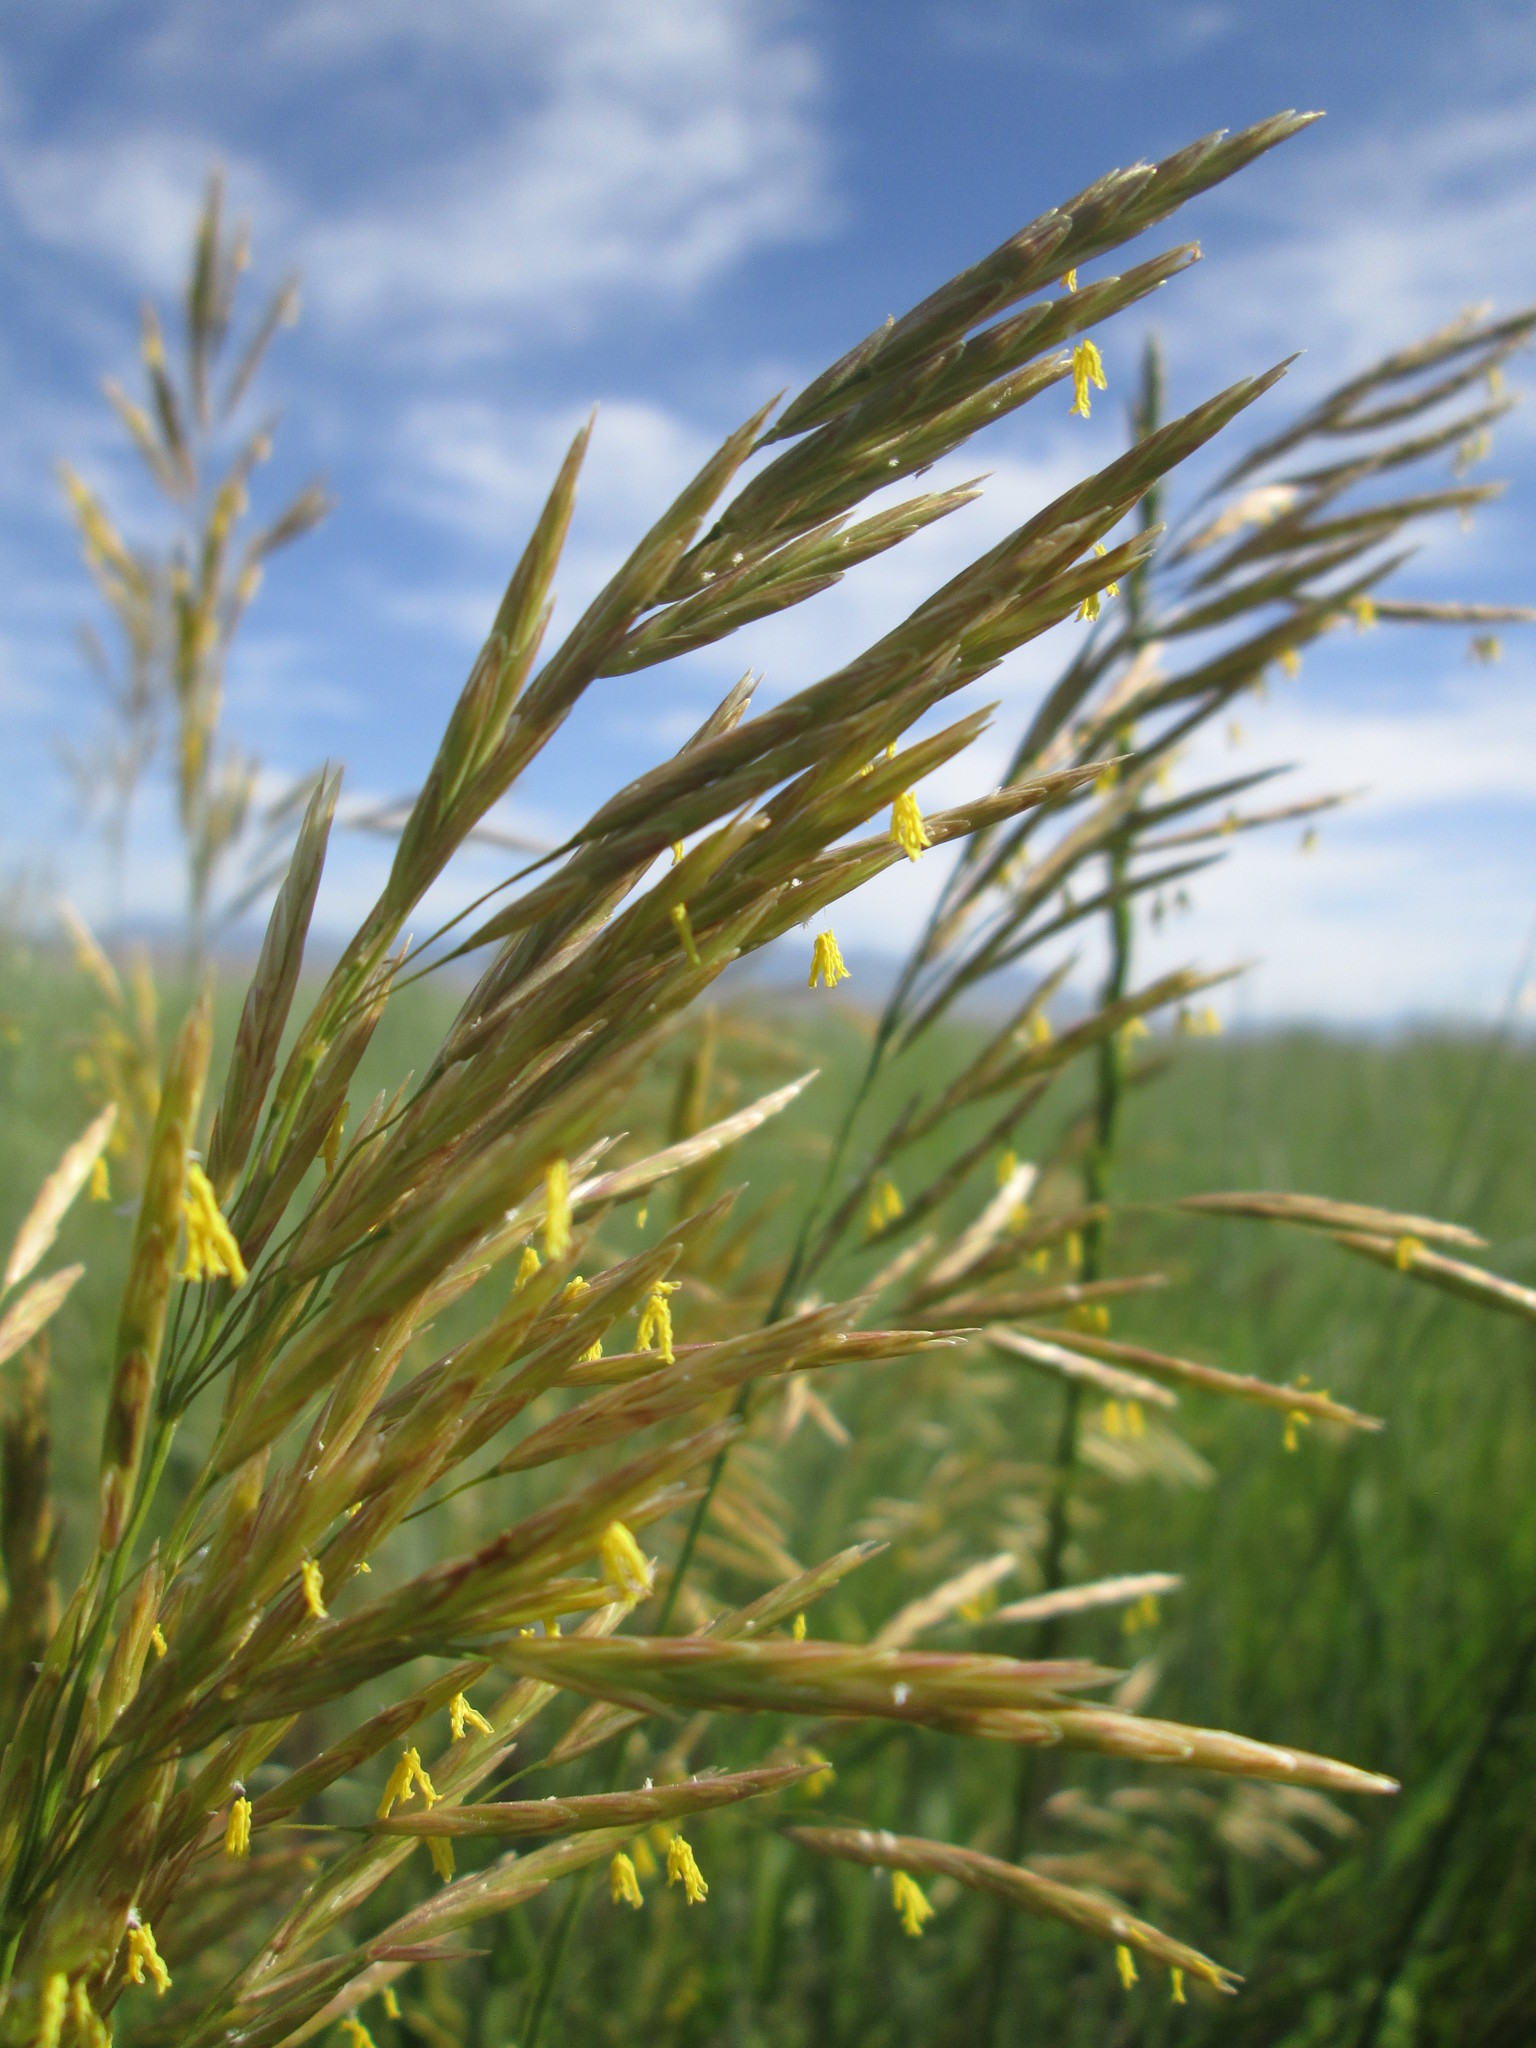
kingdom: Plantae
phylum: Tracheophyta
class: Liliopsida
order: Poales
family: Poaceae
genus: Bromus
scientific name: Bromus inermis
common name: Smooth brome
